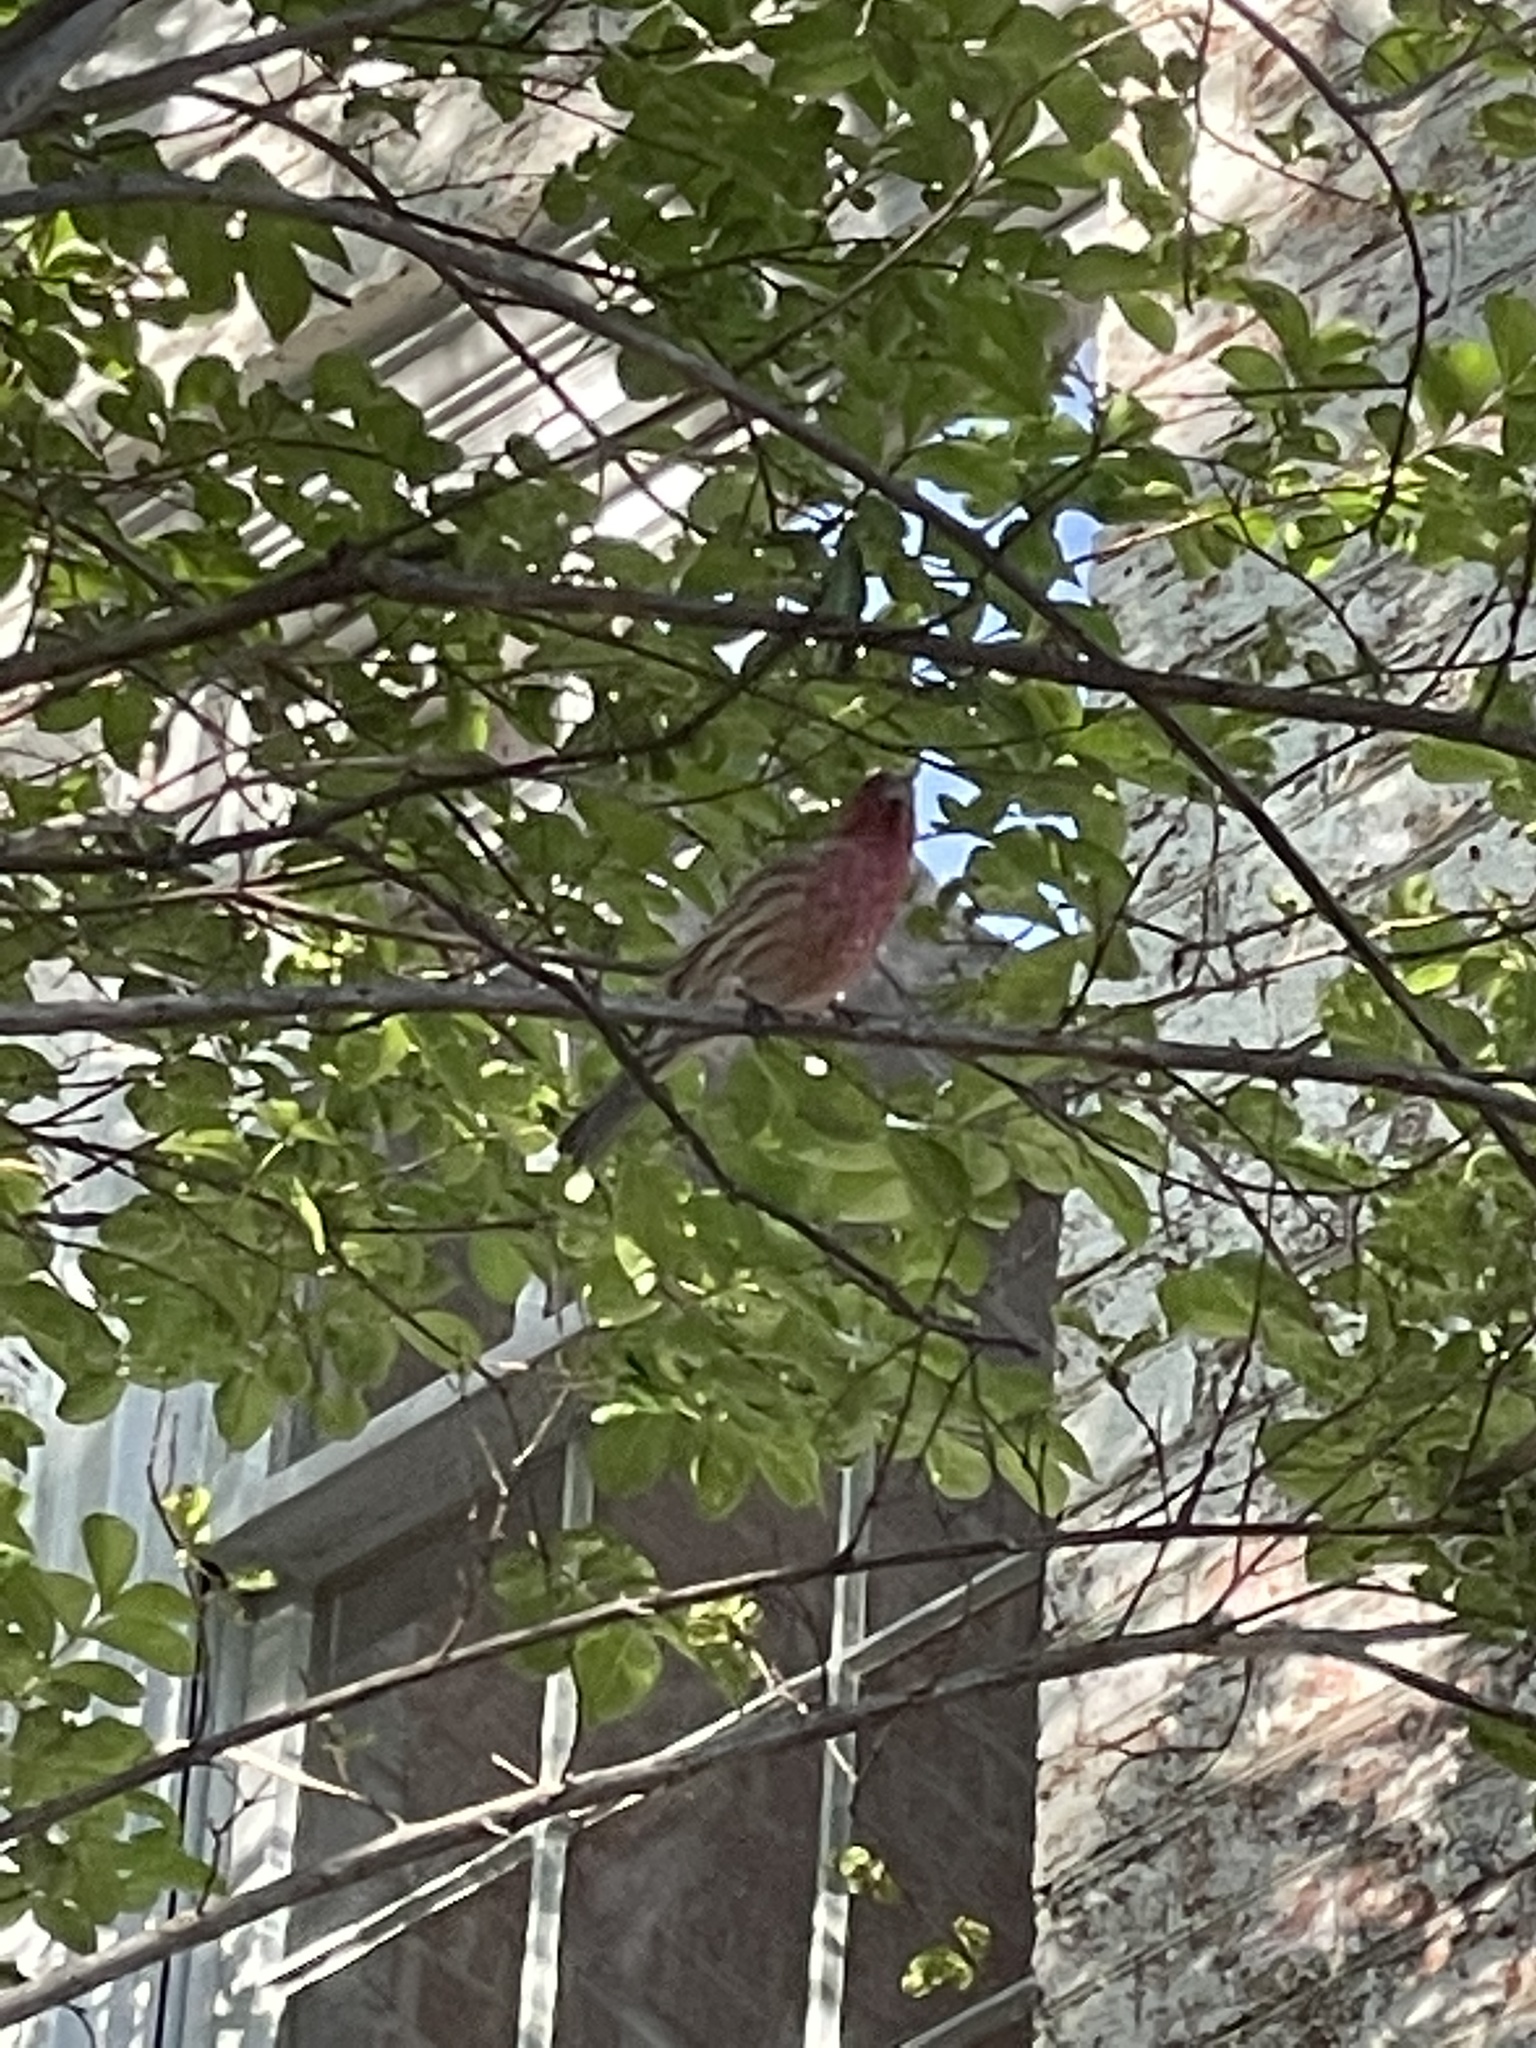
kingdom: Animalia
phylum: Chordata
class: Aves
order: Passeriformes
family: Fringillidae
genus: Haemorhous
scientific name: Haemorhous mexicanus
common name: House finch
